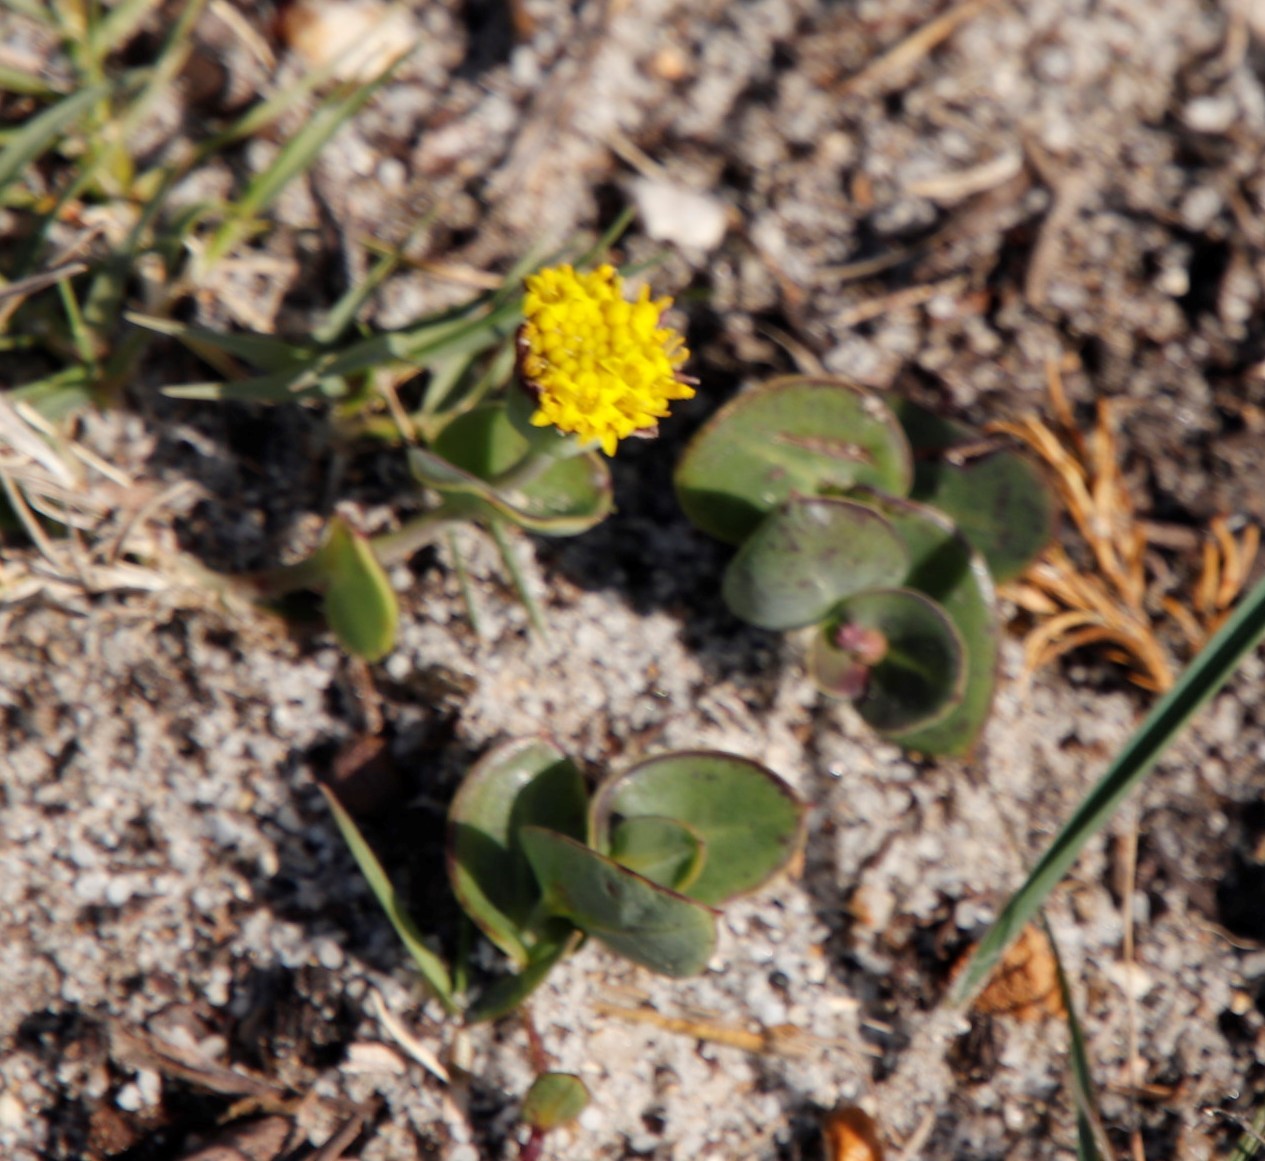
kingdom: Plantae
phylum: Tracheophyta
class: Magnoliopsida
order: Asterales
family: Asteraceae
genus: Othonna
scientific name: Othonna undulosa
